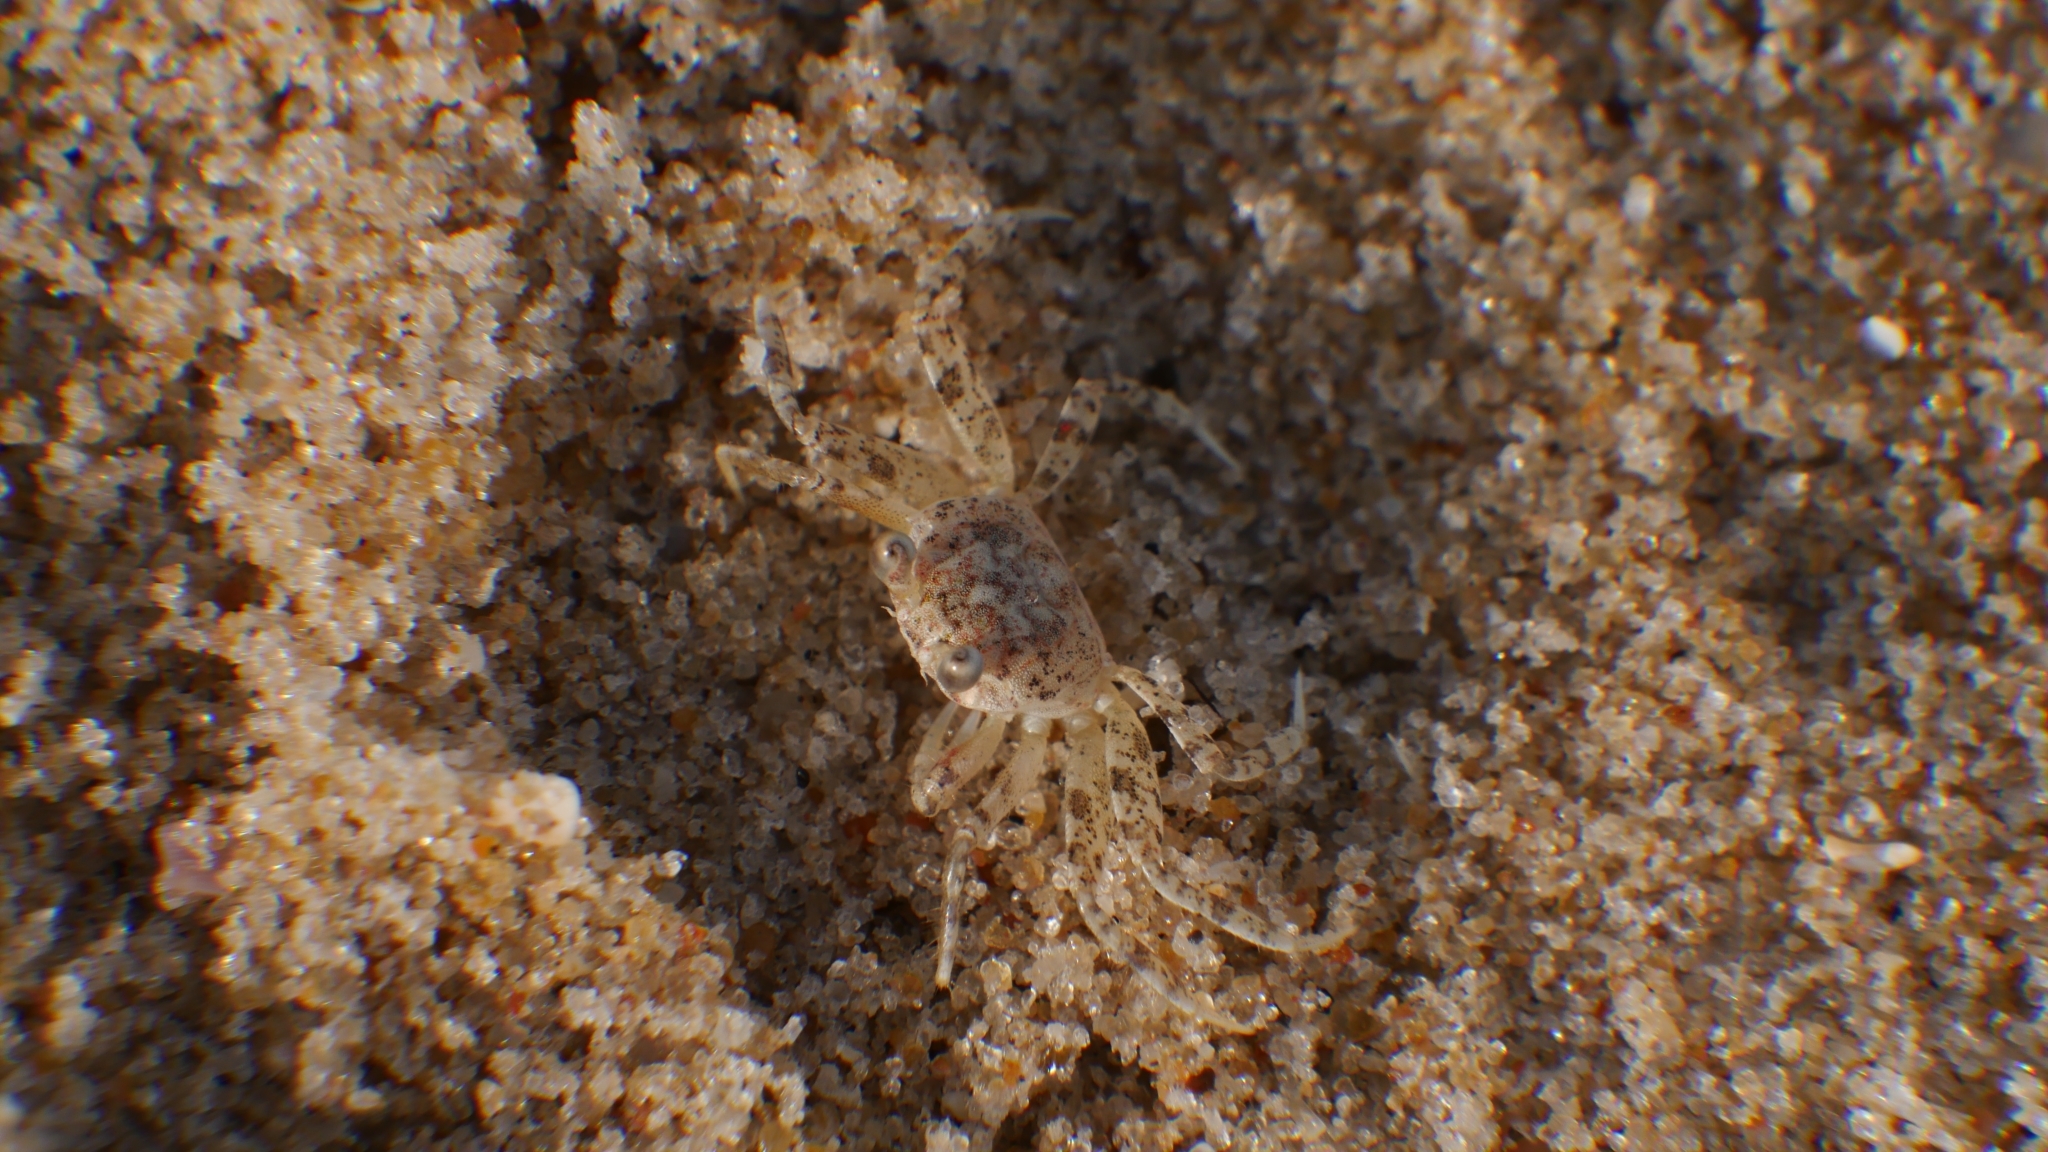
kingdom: Animalia
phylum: Arthropoda
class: Malacostraca
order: Decapoda
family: Ocypodidae
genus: Ocypode
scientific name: Ocypode quadrata
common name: Ghost crab
